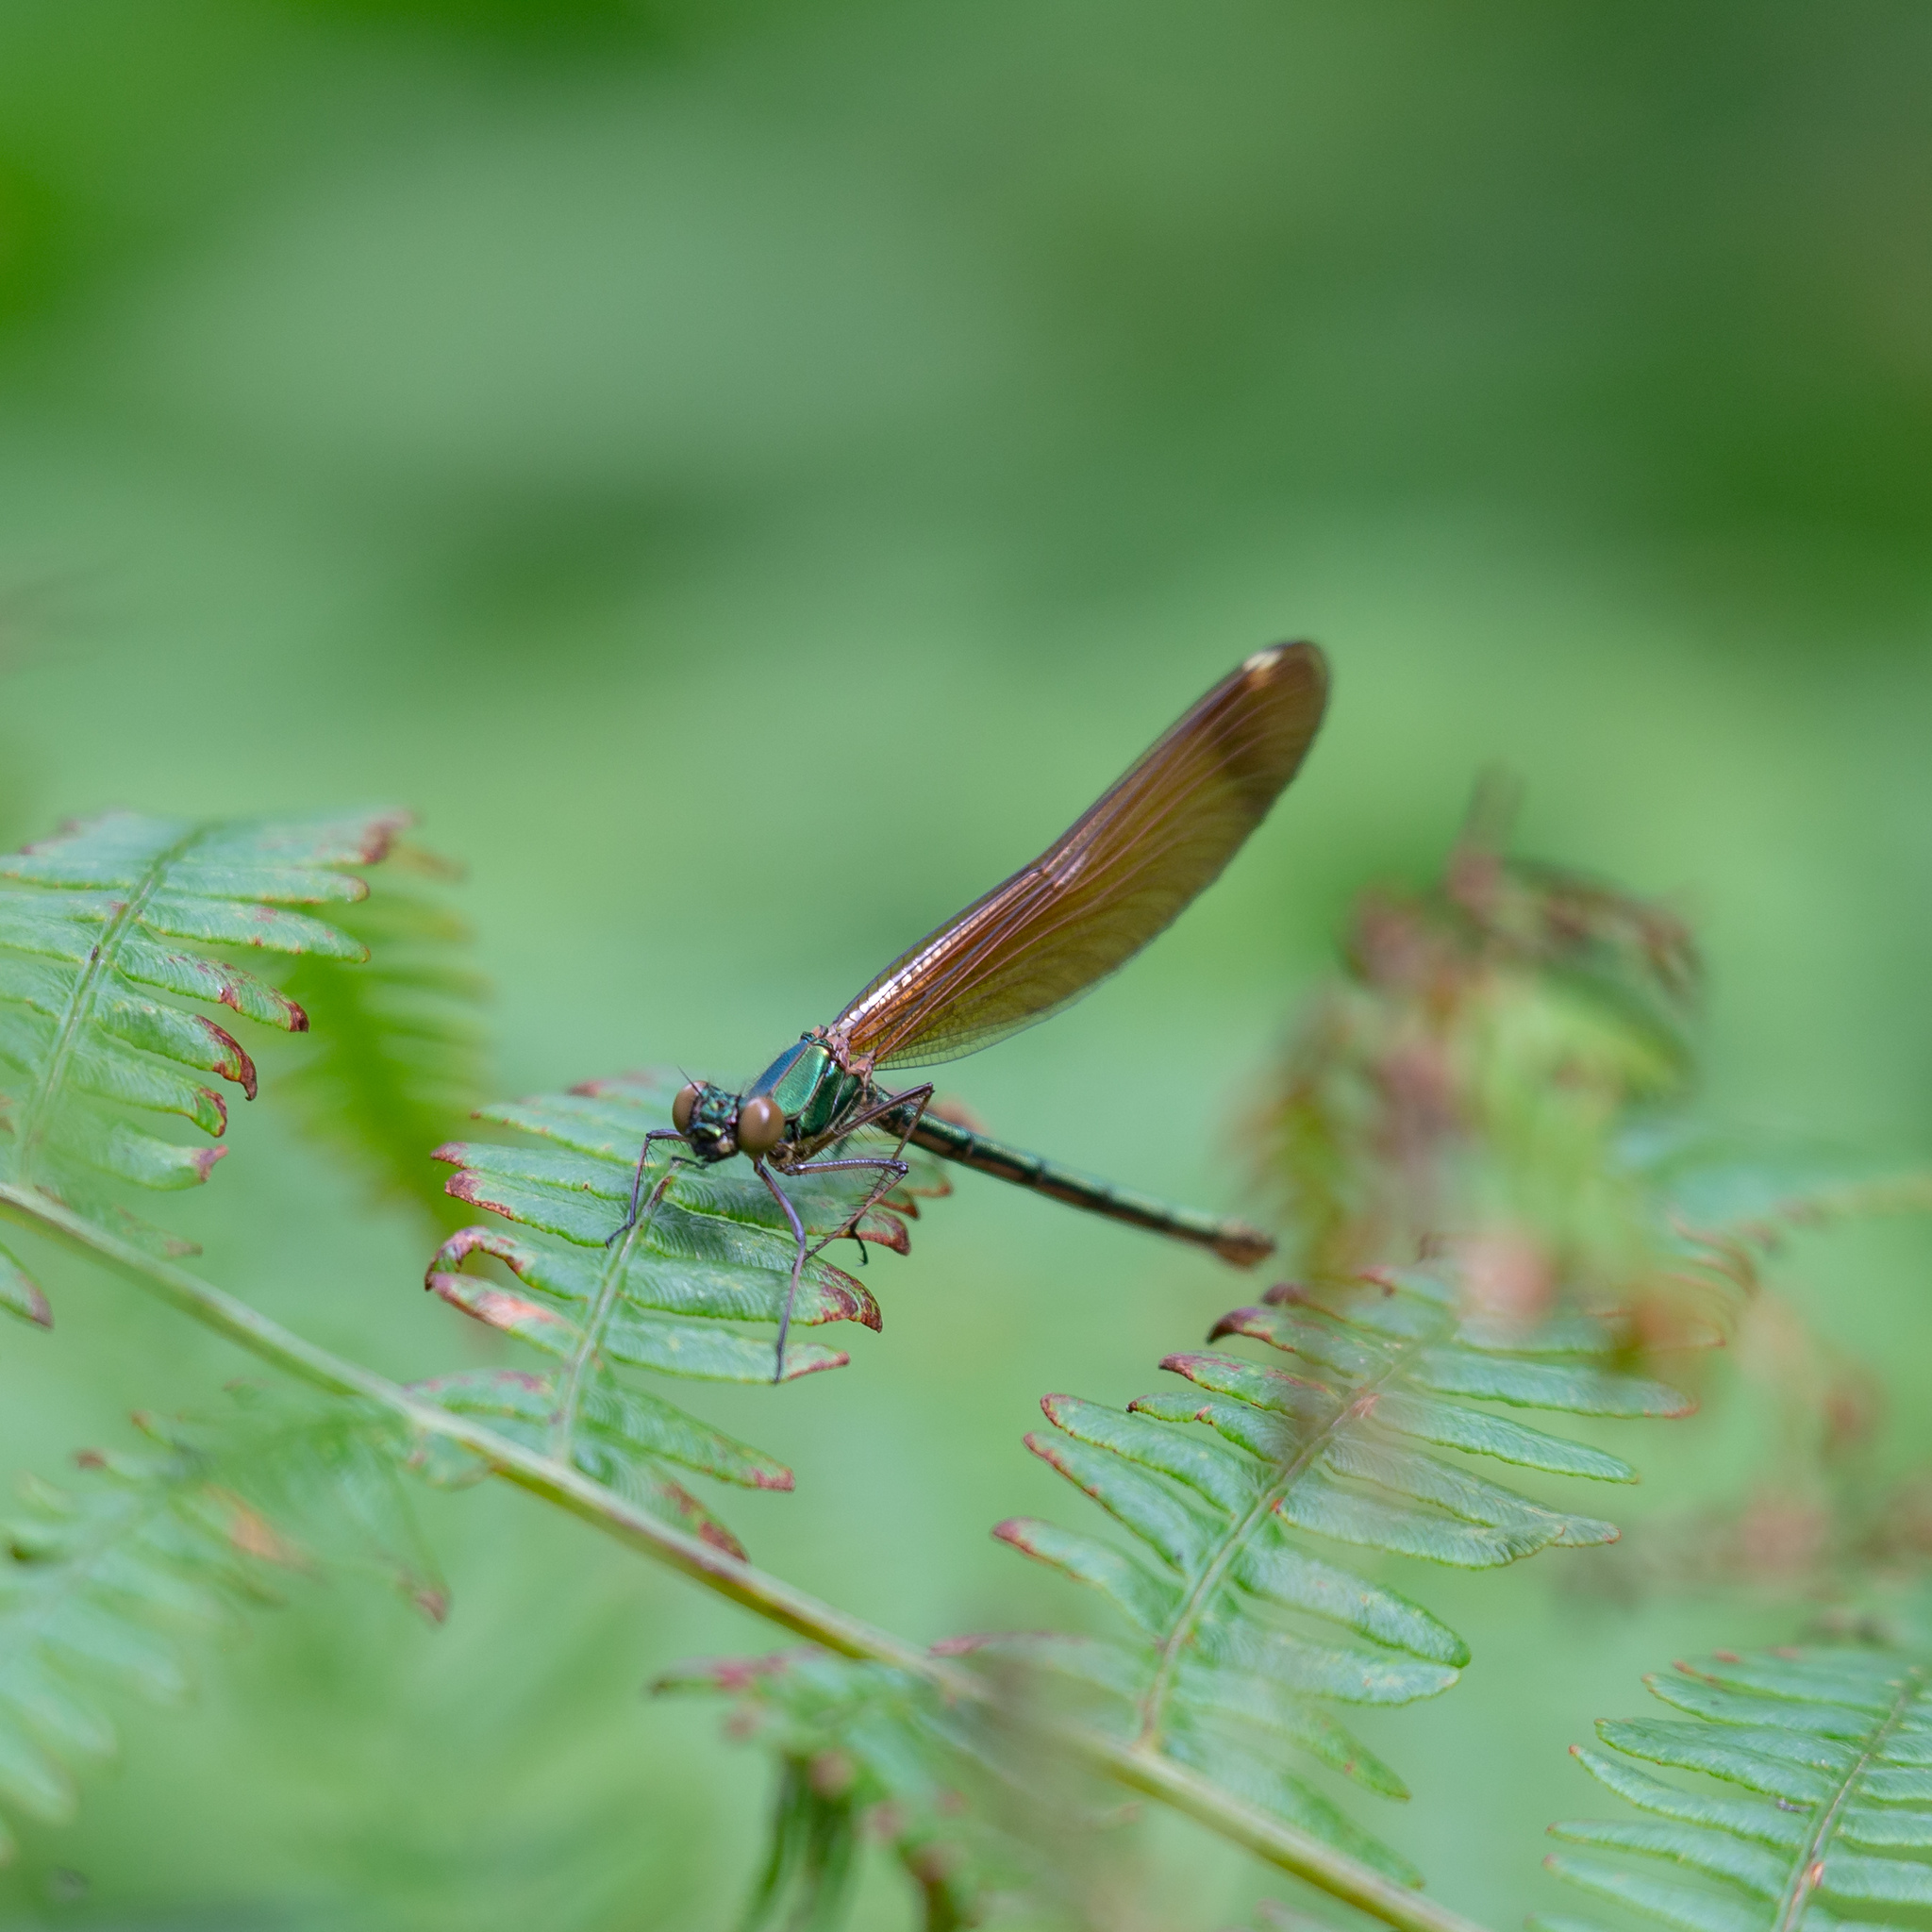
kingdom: Animalia
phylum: Arthropoda
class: Insecta
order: Odonata
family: Calopterygidae
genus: Calopteryx
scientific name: Calopteryx haemorrhoidalis
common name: Copper demoiselle
